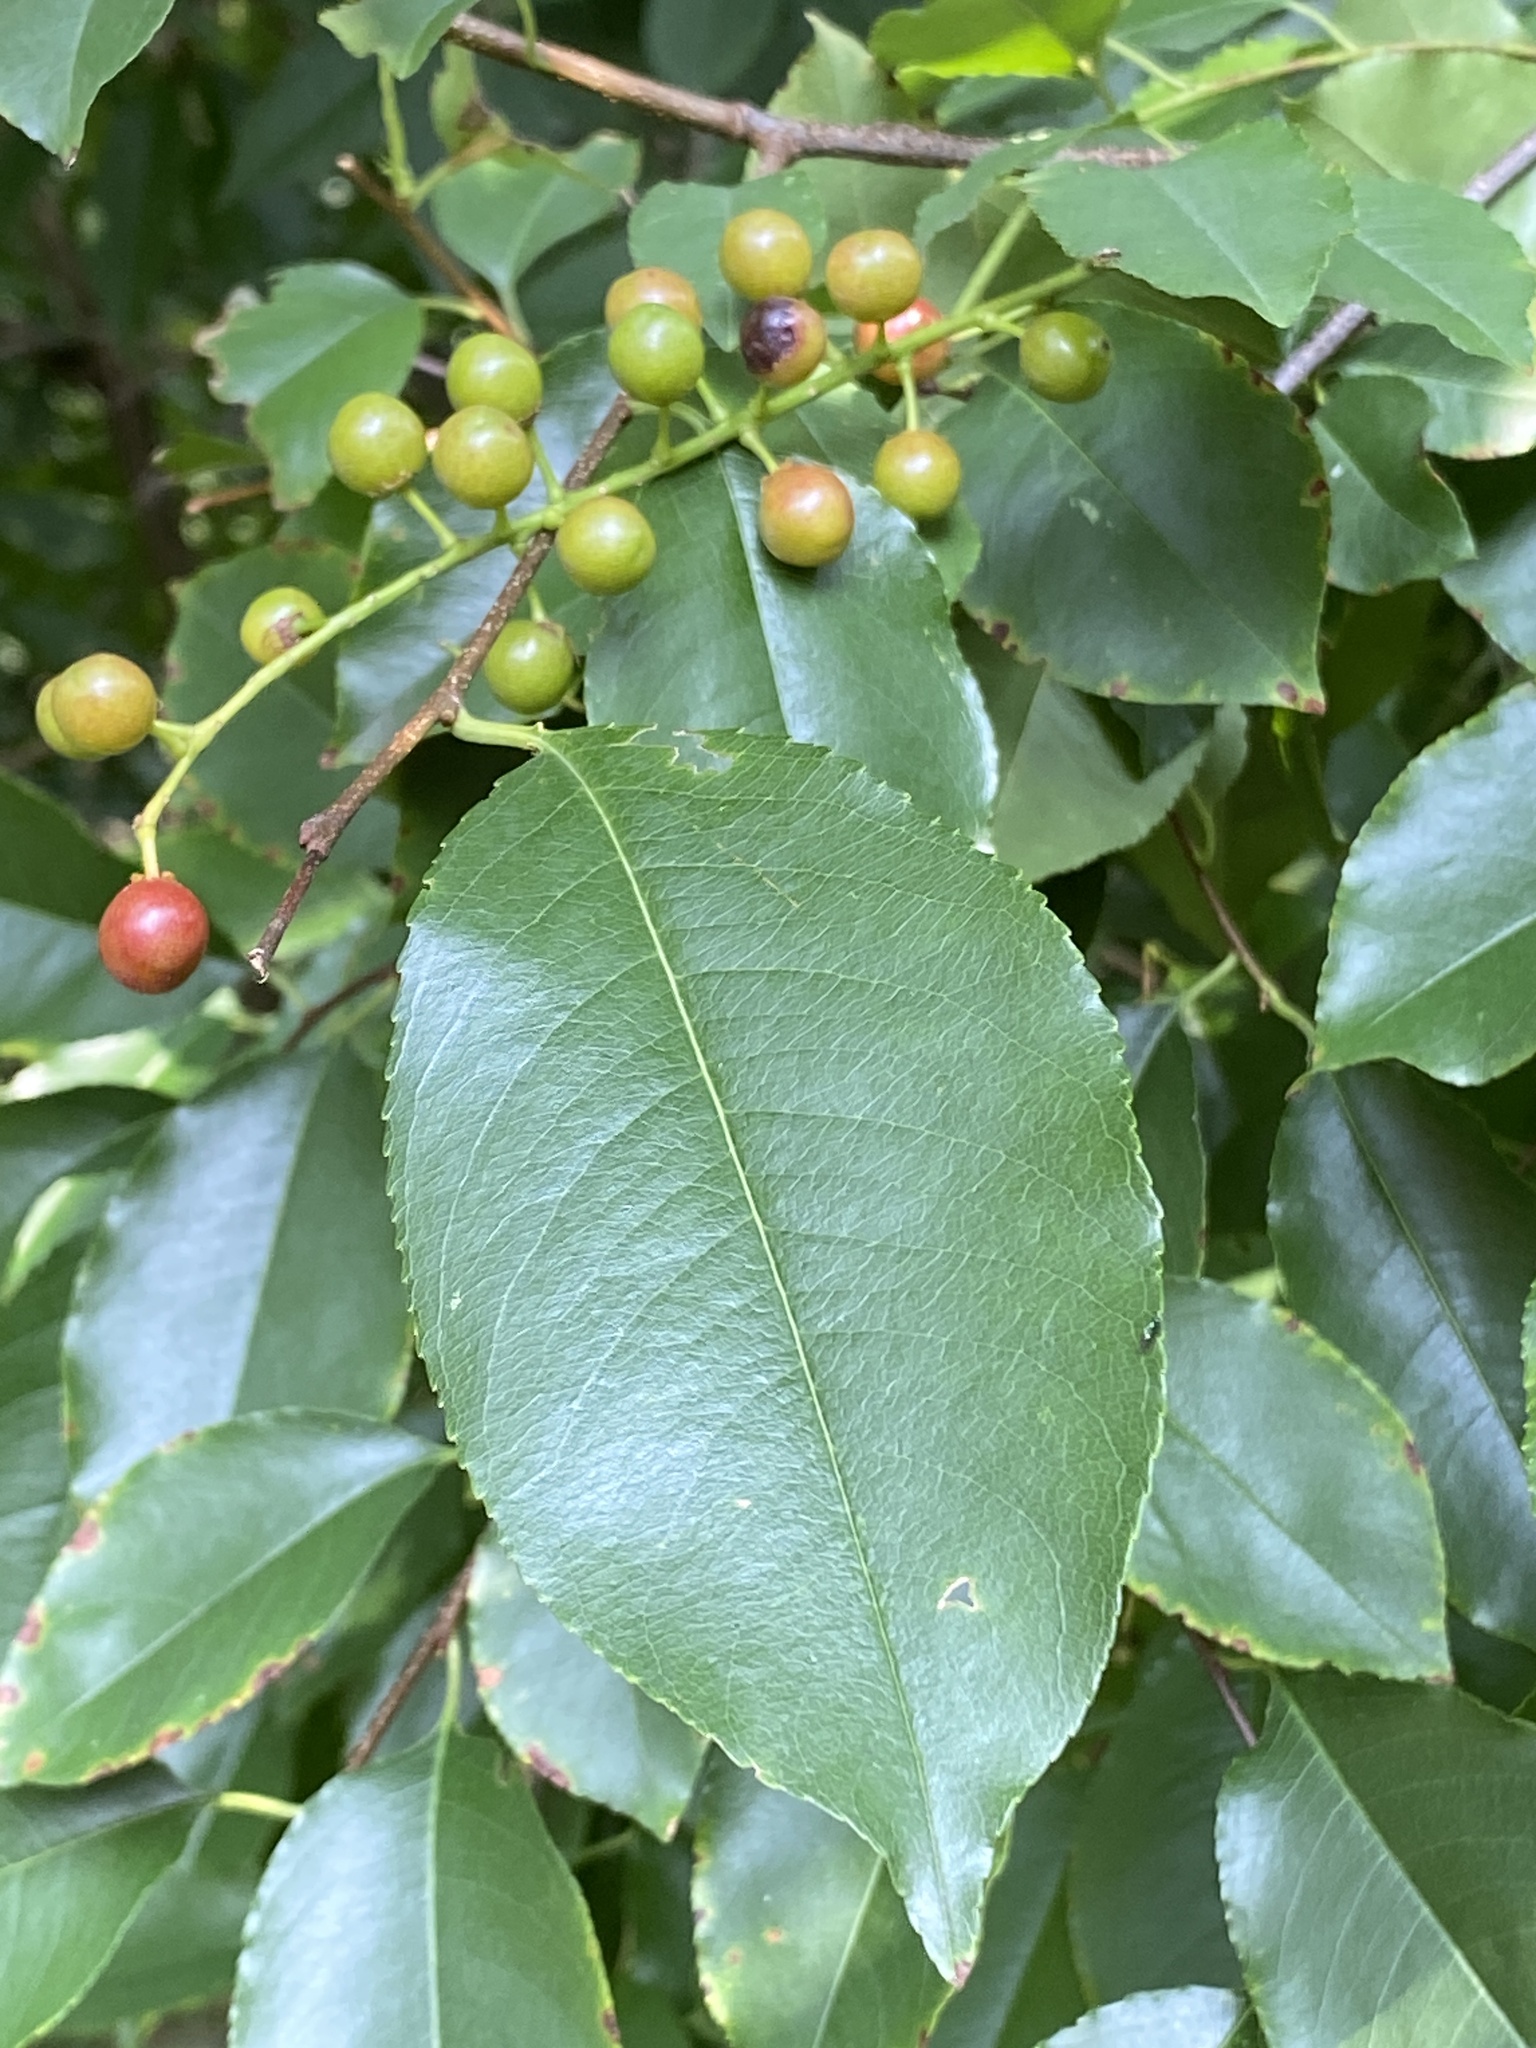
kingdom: Plantae
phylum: Tracheophyta
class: Magnoliopsida
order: Rosales
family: Rosaceae
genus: Prunus
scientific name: Prunus serotina
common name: Black cherry
